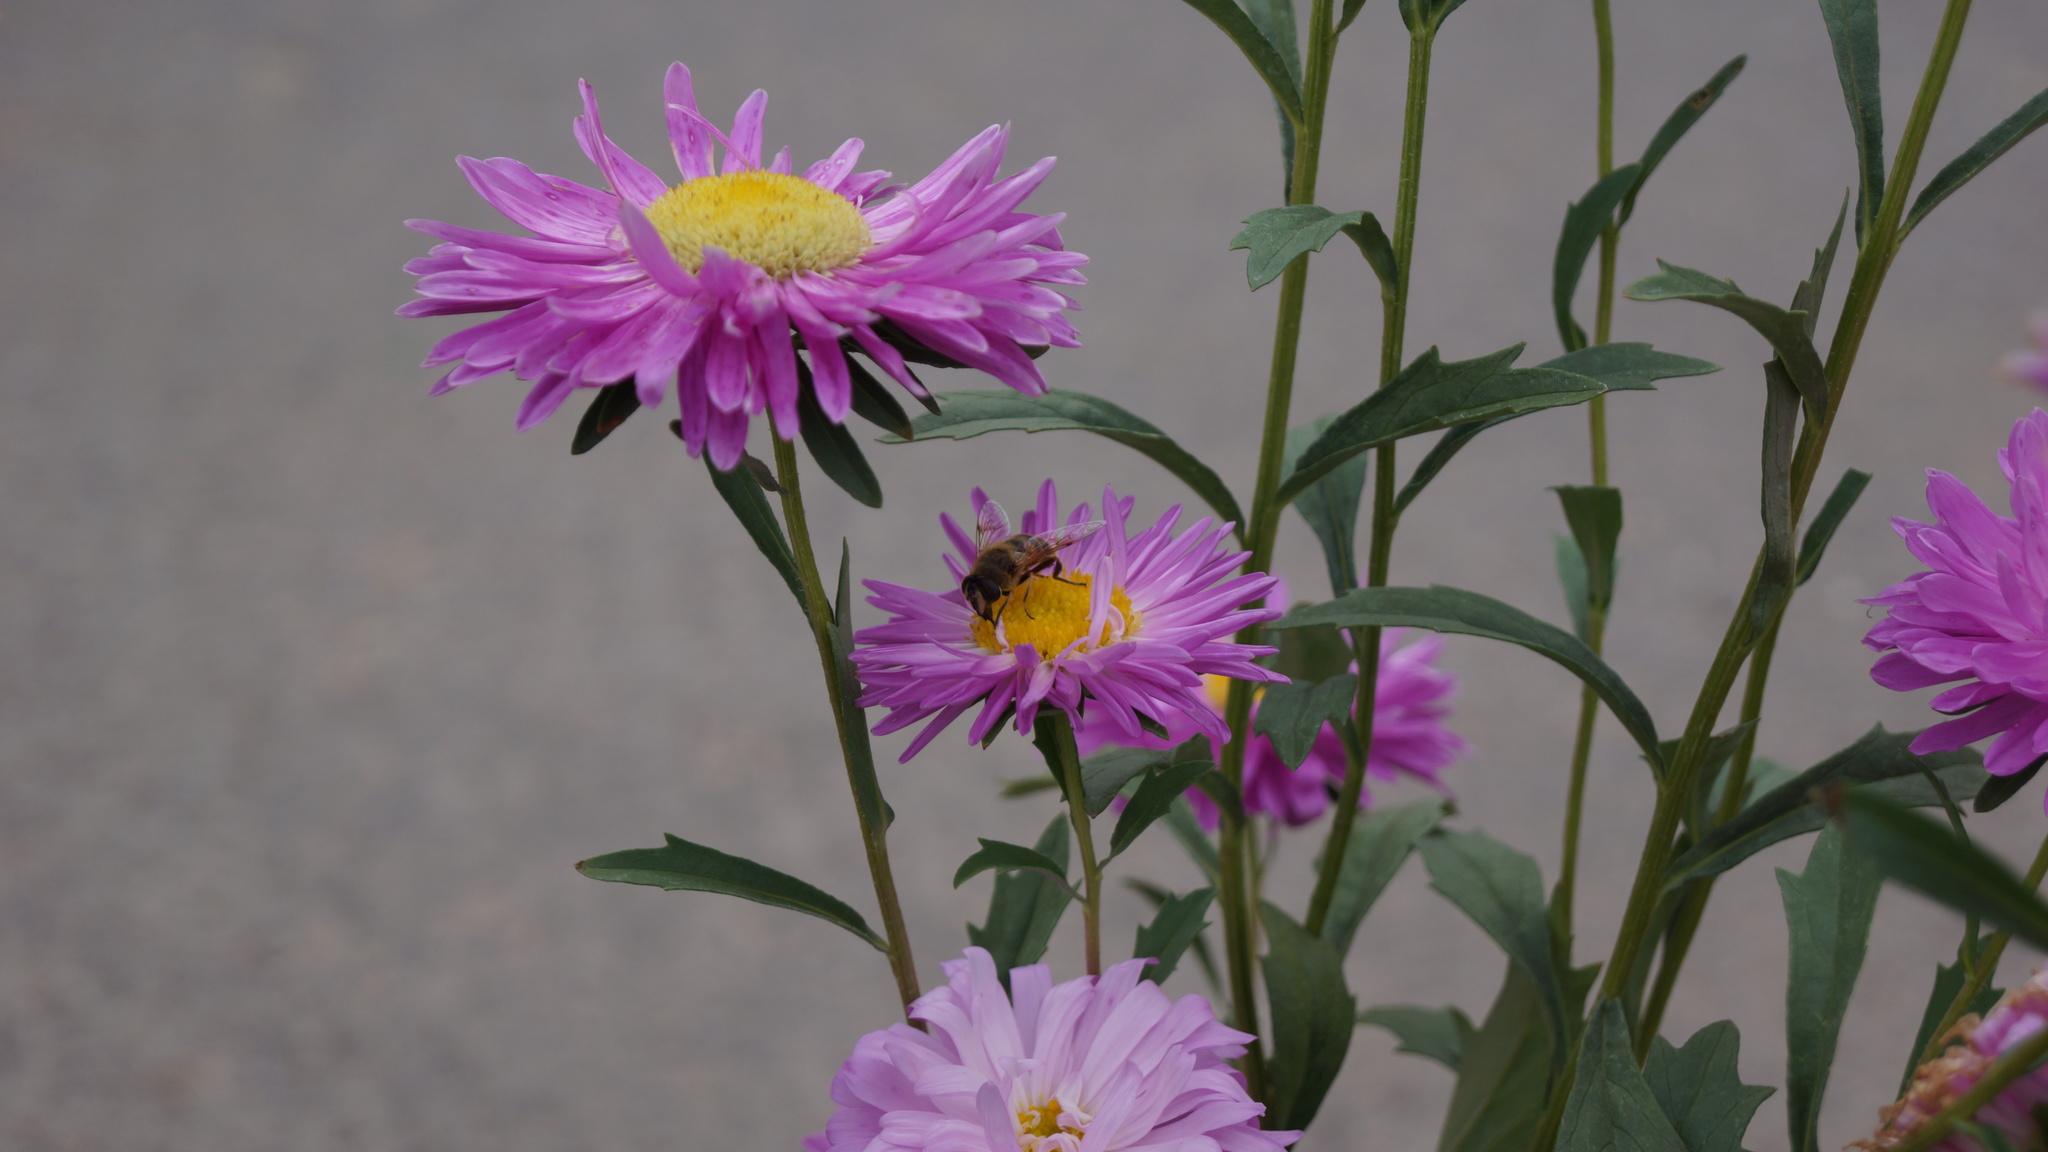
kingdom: Animalia
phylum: Arthropoda
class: Insecta
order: Diptera
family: Syrphidae
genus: Eristalis
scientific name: Eristalis tenax
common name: Drone fly
